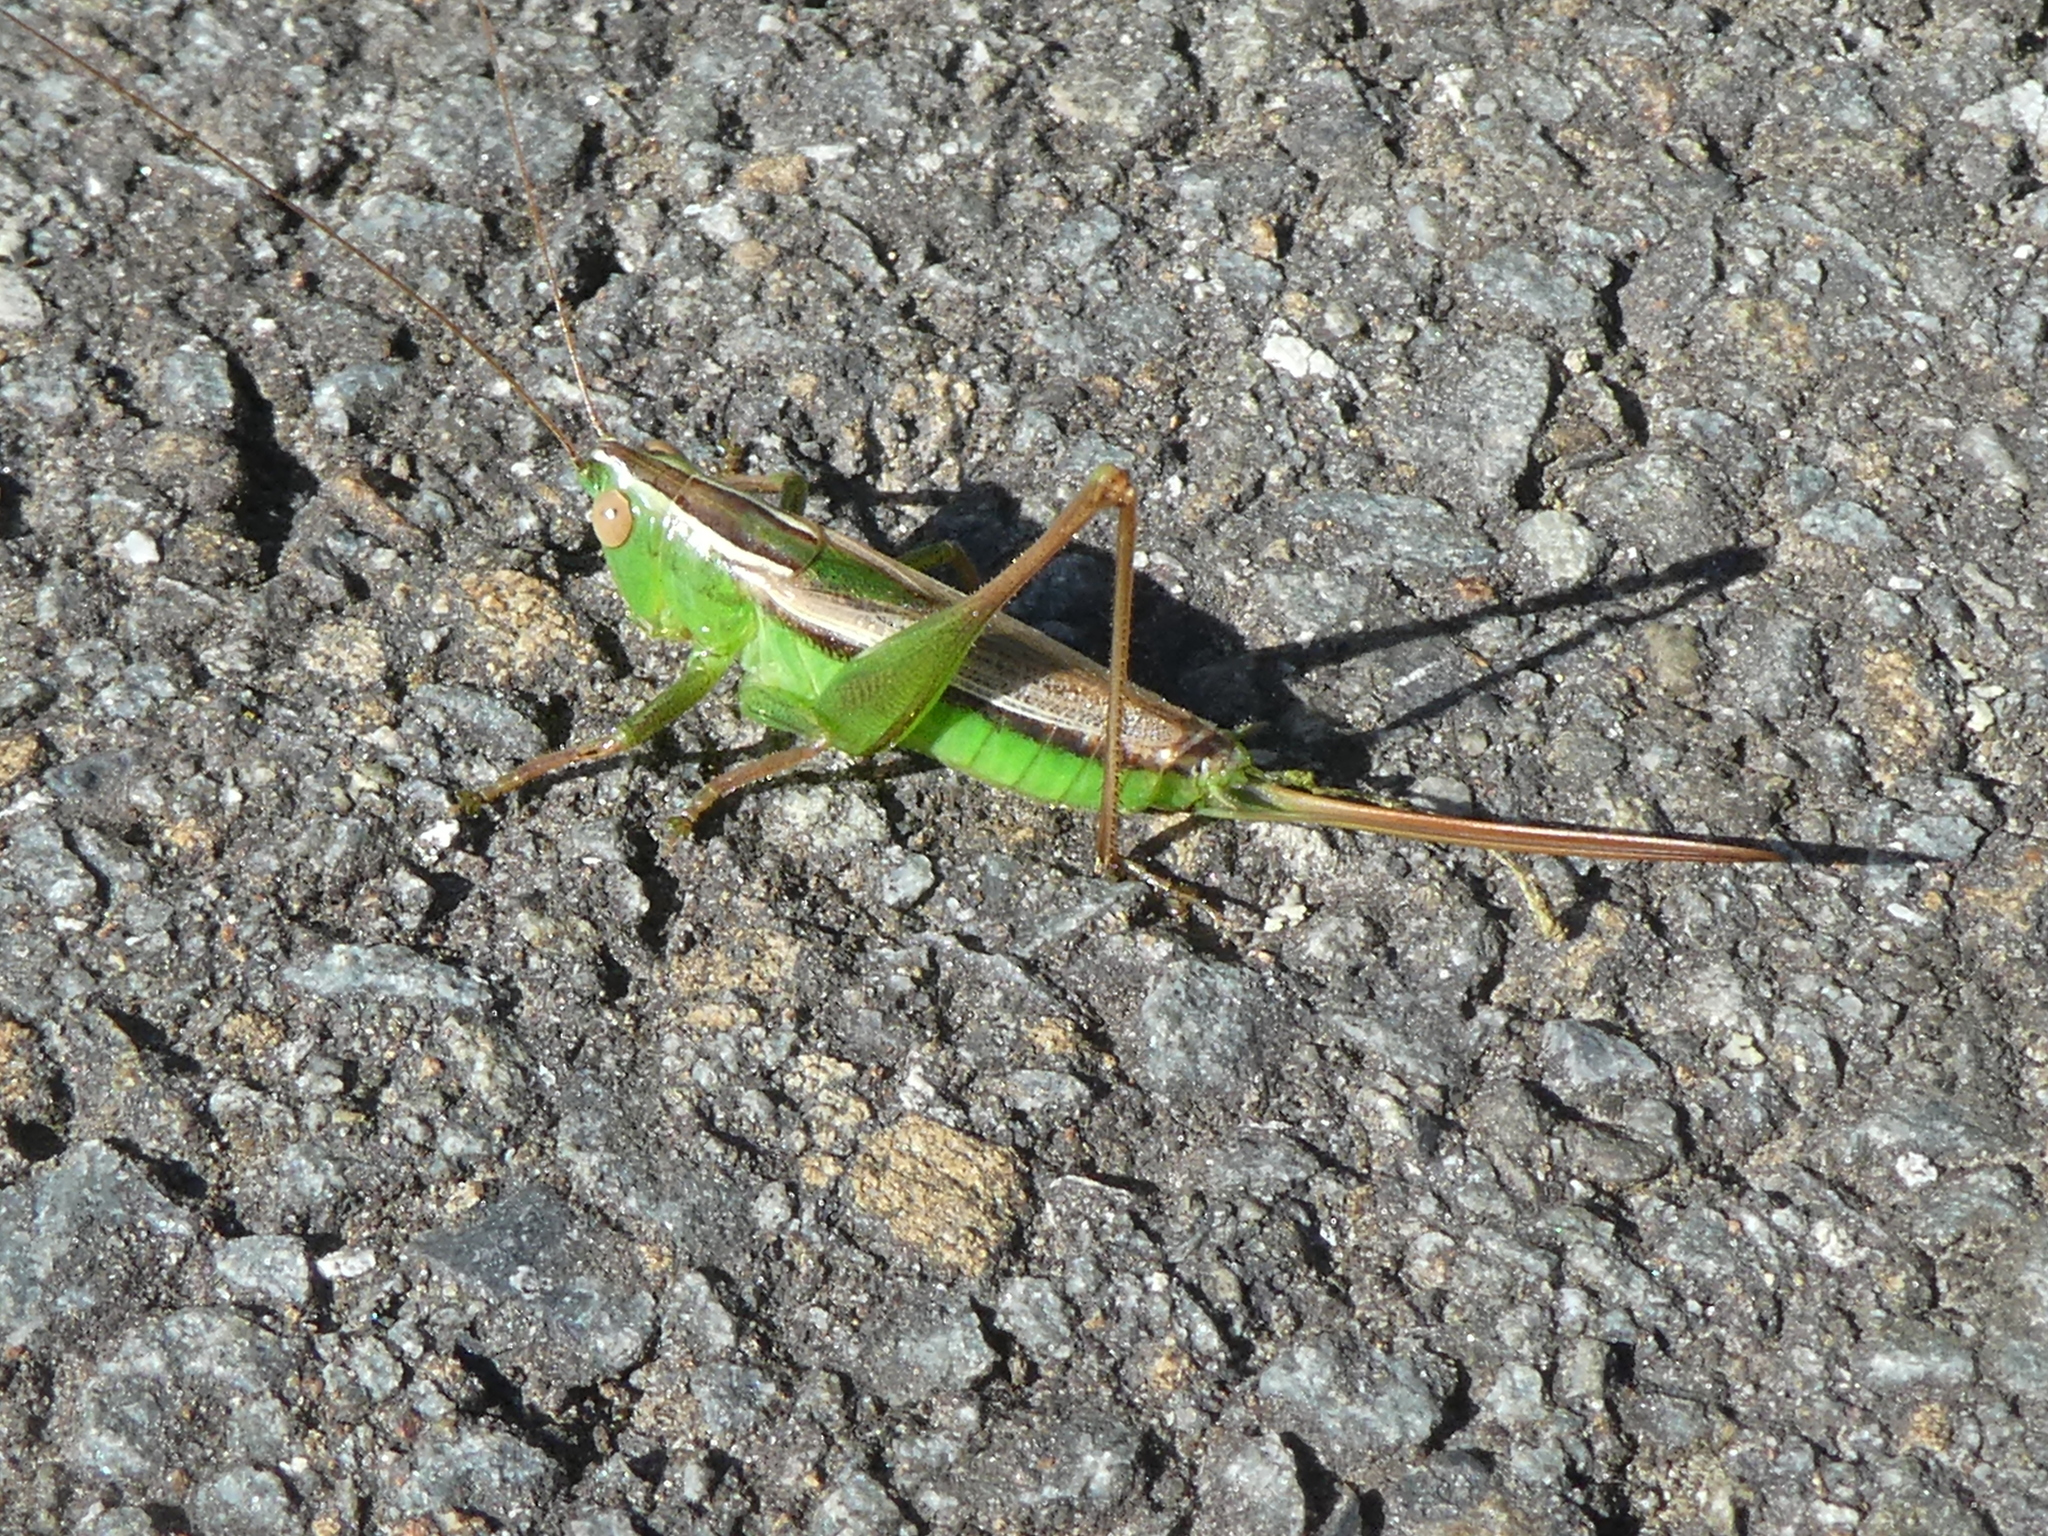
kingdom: Animalia
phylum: Arthropoda
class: Insecta
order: Orthoptera
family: Tettigoniidae
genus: Conocephalus
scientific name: Conocephalus albescens
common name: Whitish meadow katydid
